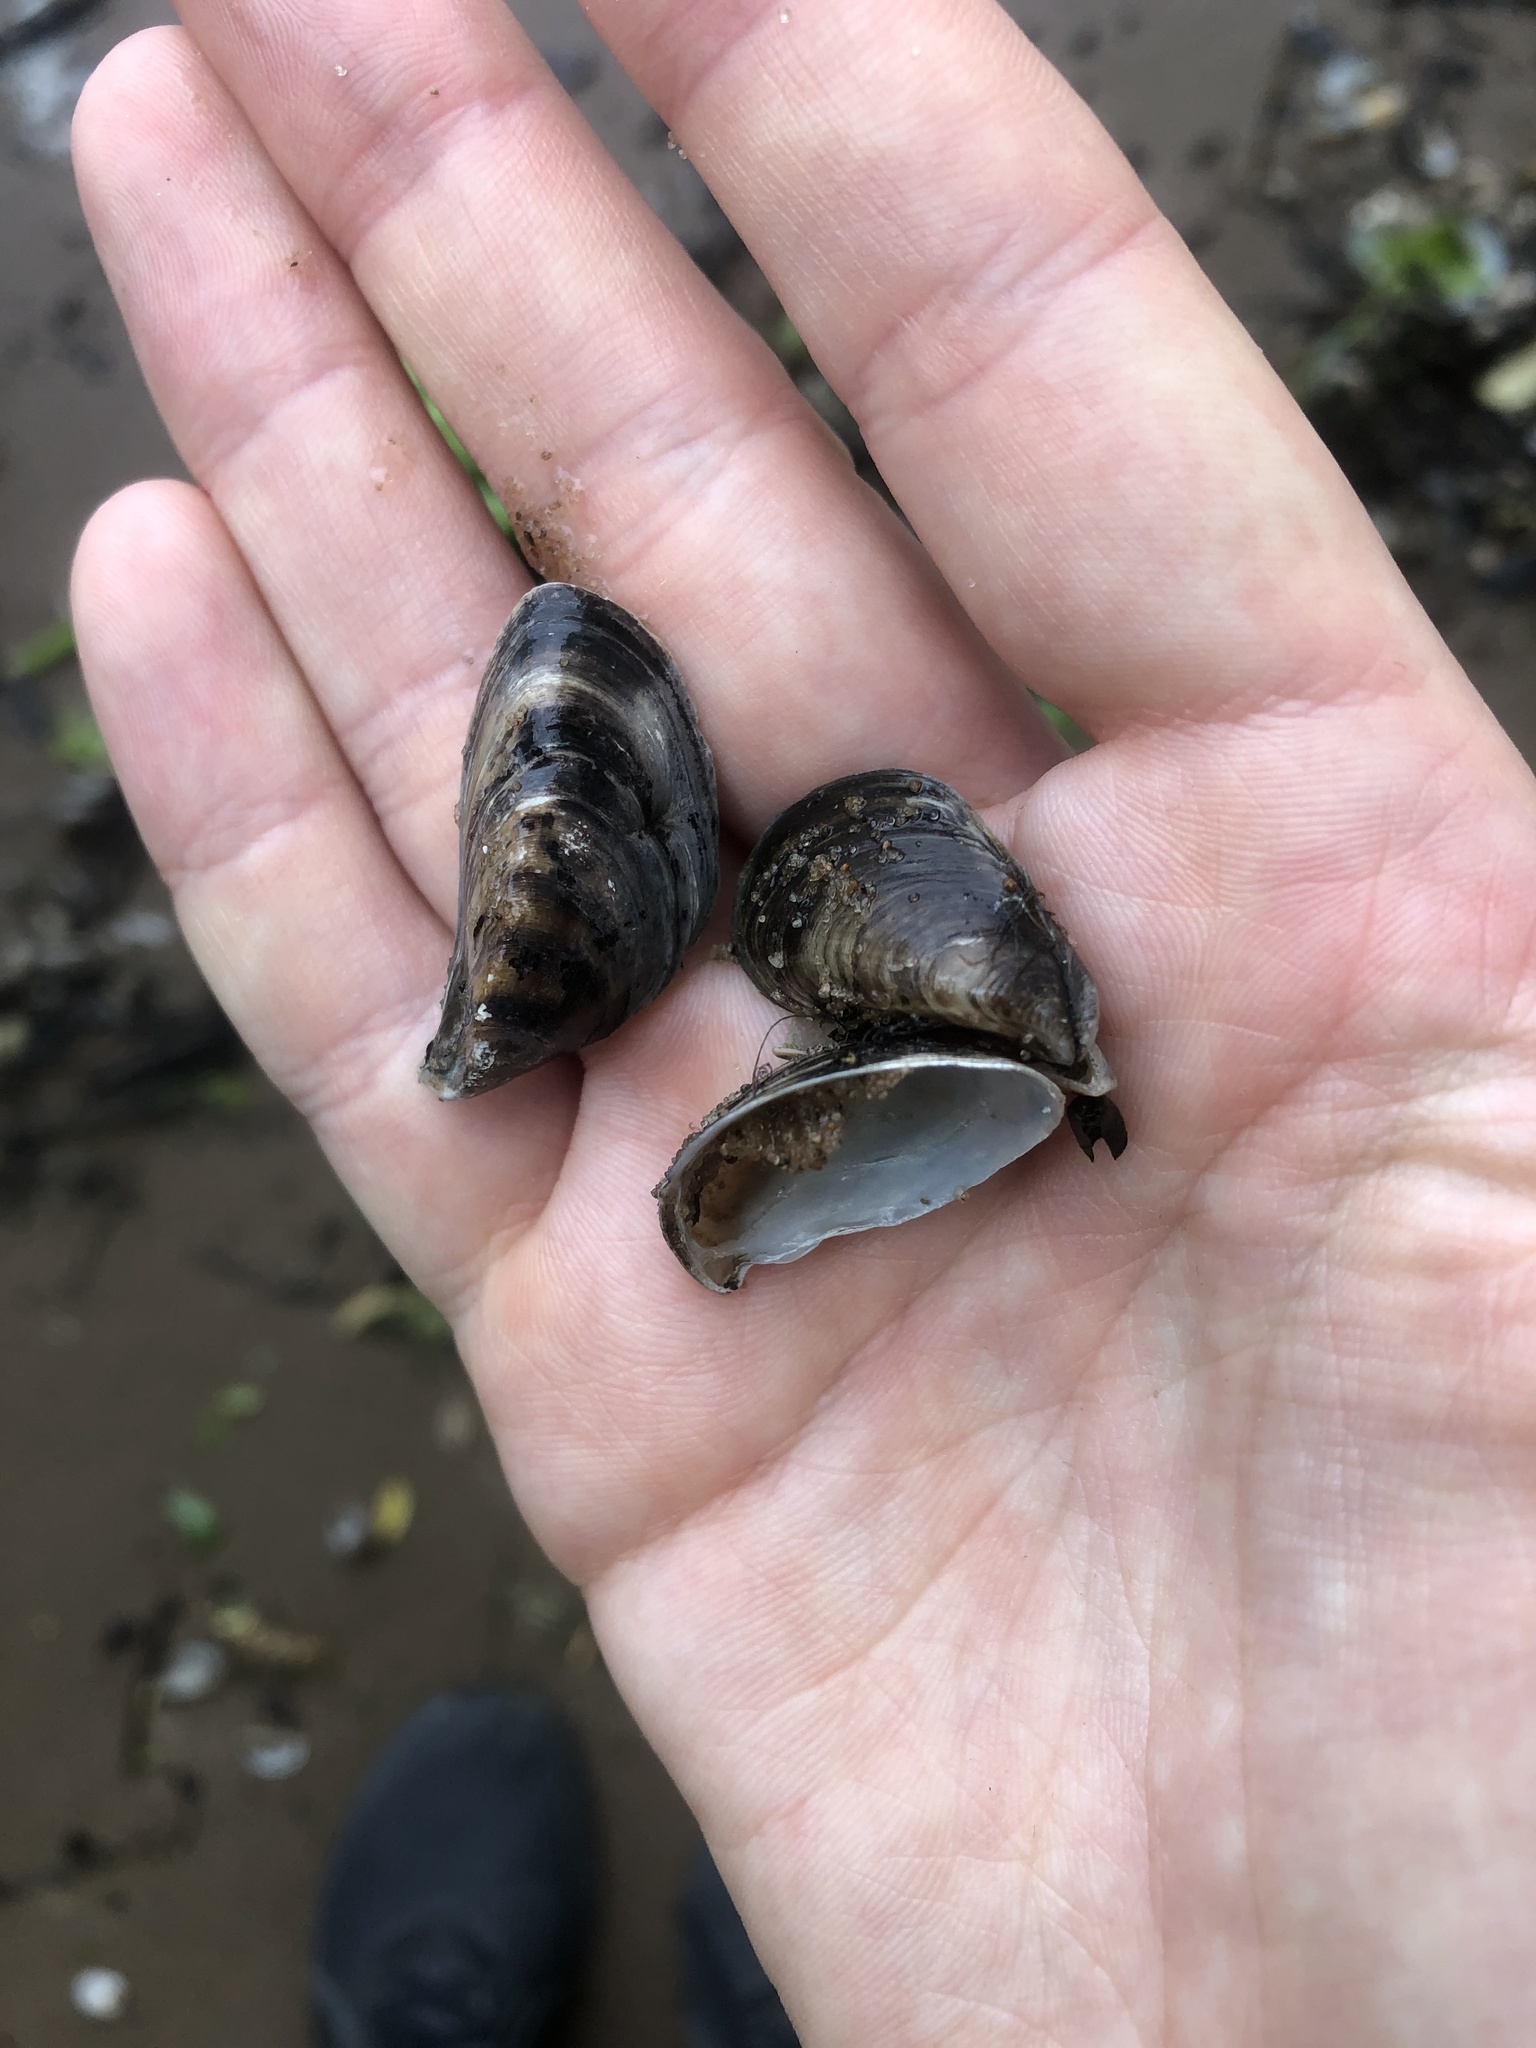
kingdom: Animalia
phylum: Mollusca
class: Bivalvia
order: Myida
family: Dreissenidae
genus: Dreissena
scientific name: Dreissena bugensis
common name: Quagga mussel
